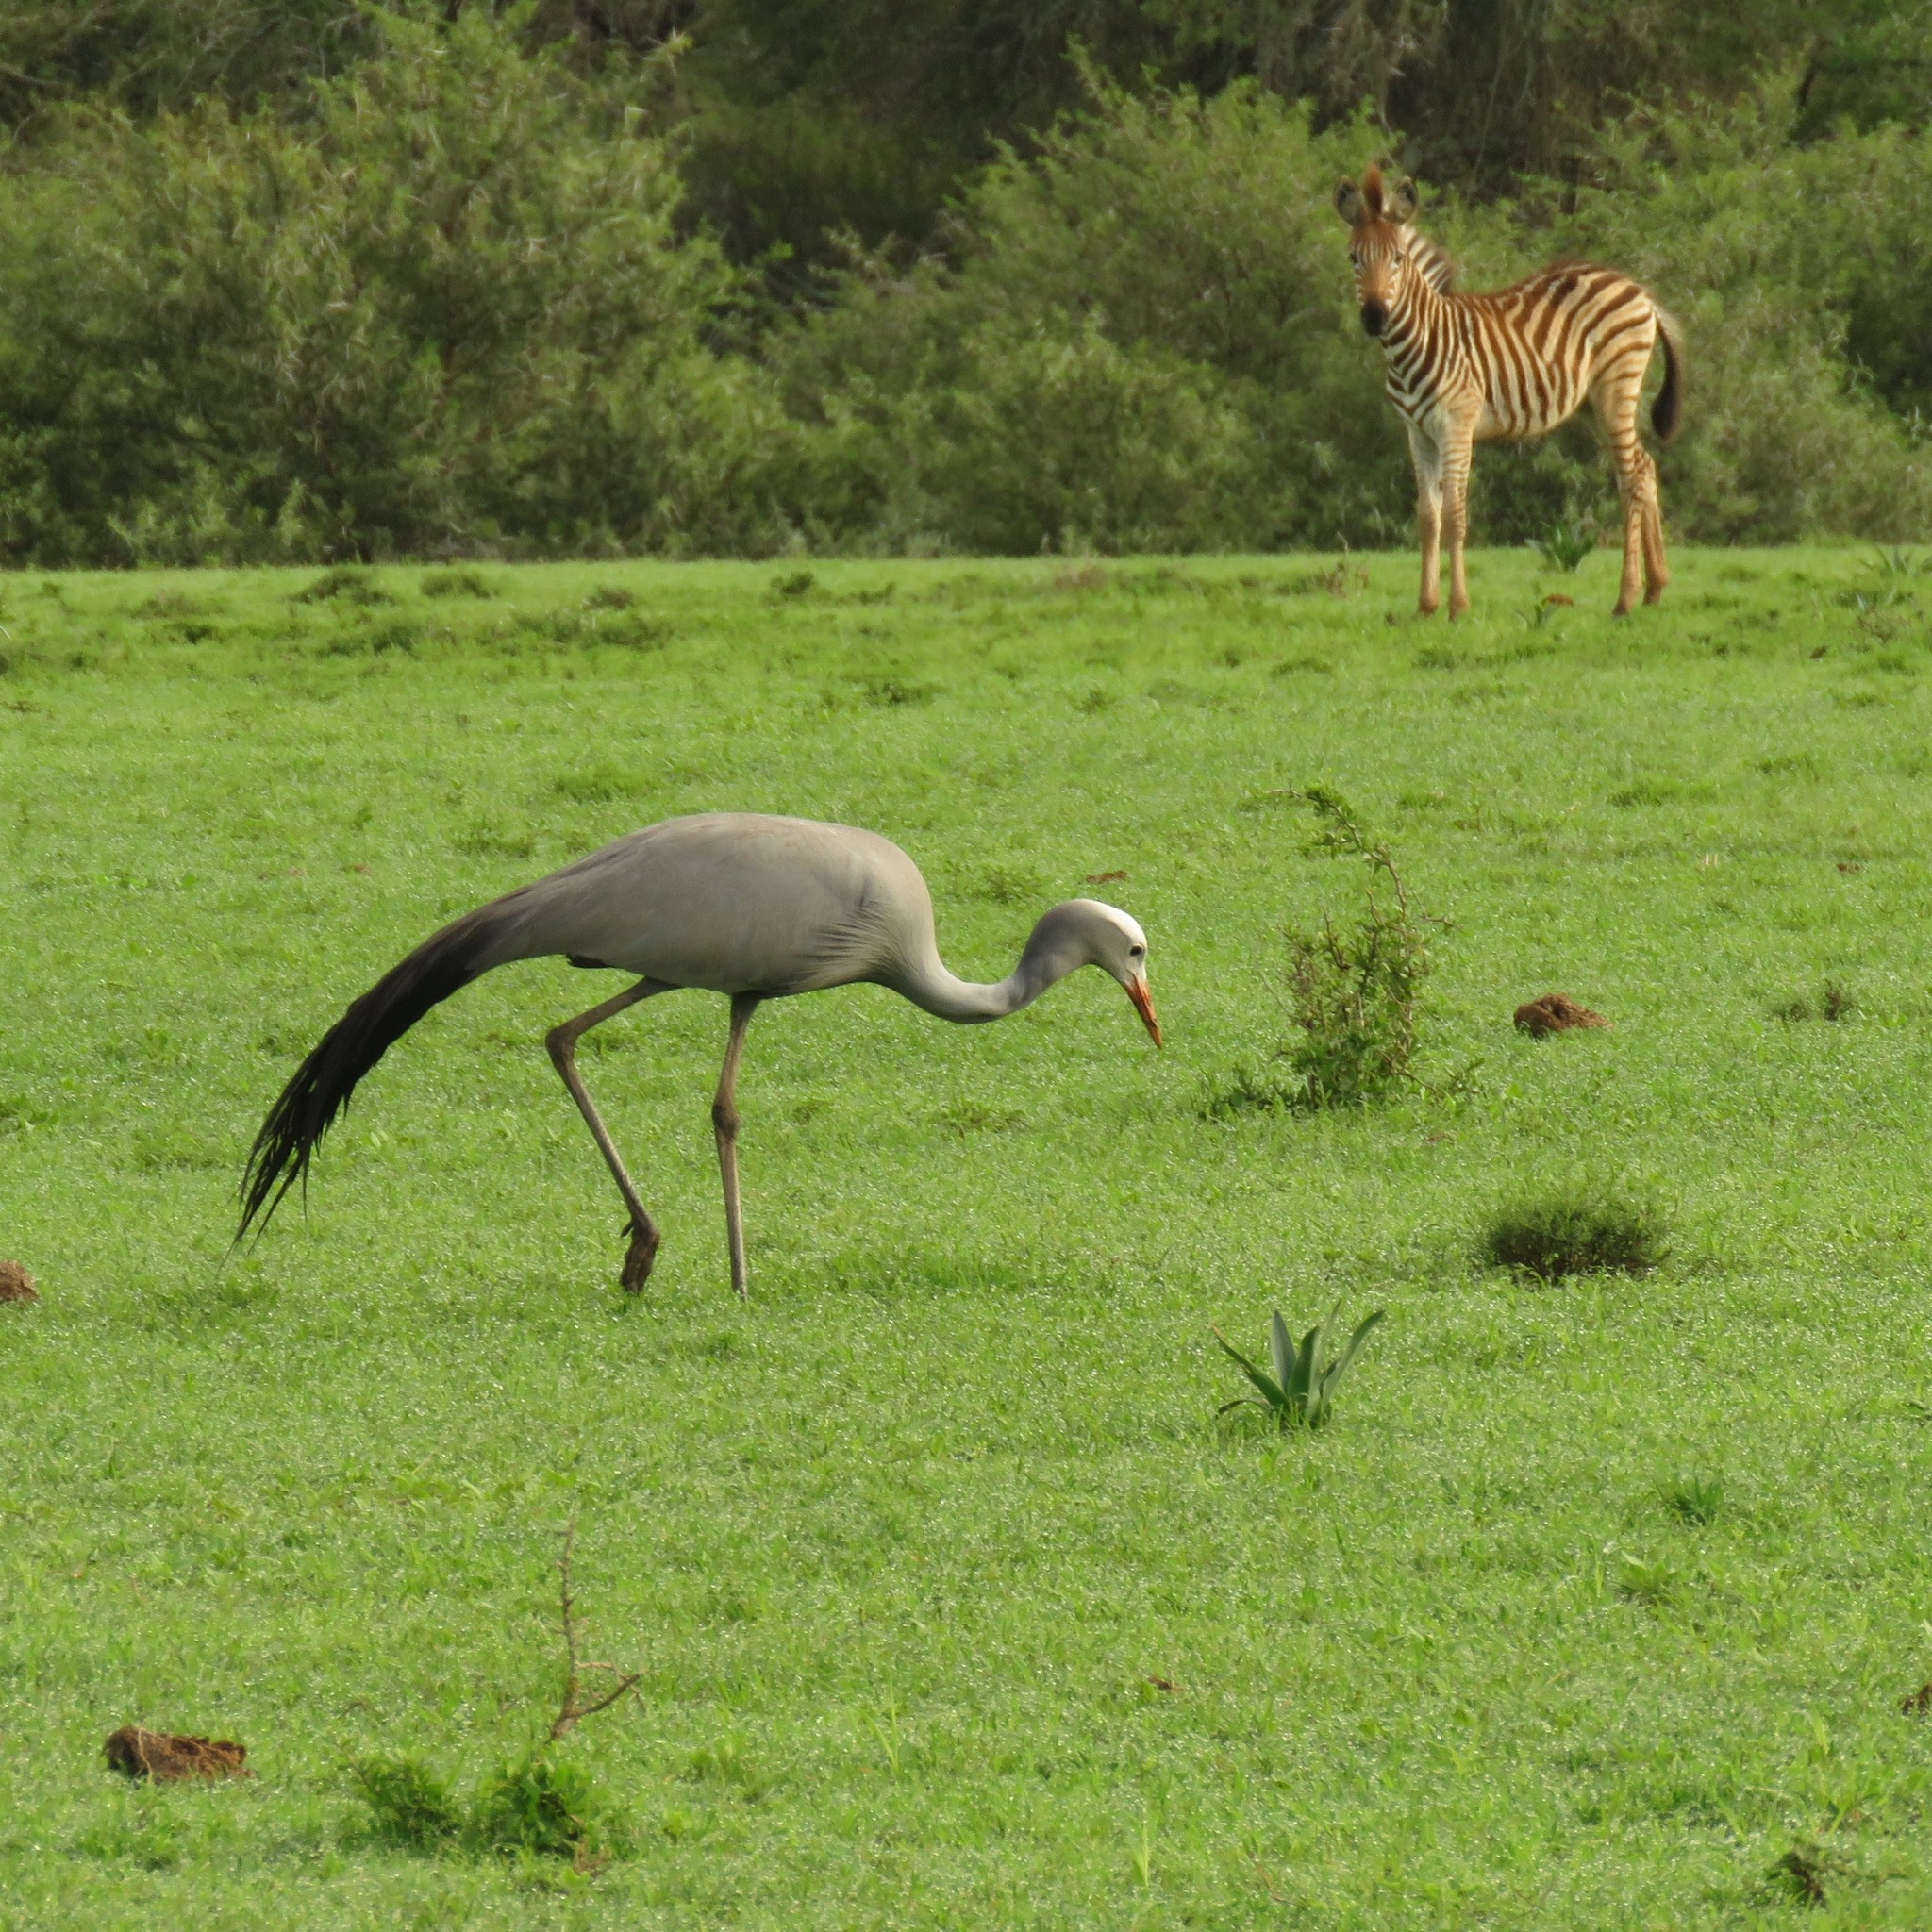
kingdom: Animalia
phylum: Chordata
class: Aves
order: Gruiformes
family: Gruidae
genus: Anthropoides
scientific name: Anthropoides paradiseus
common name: Blue crane
